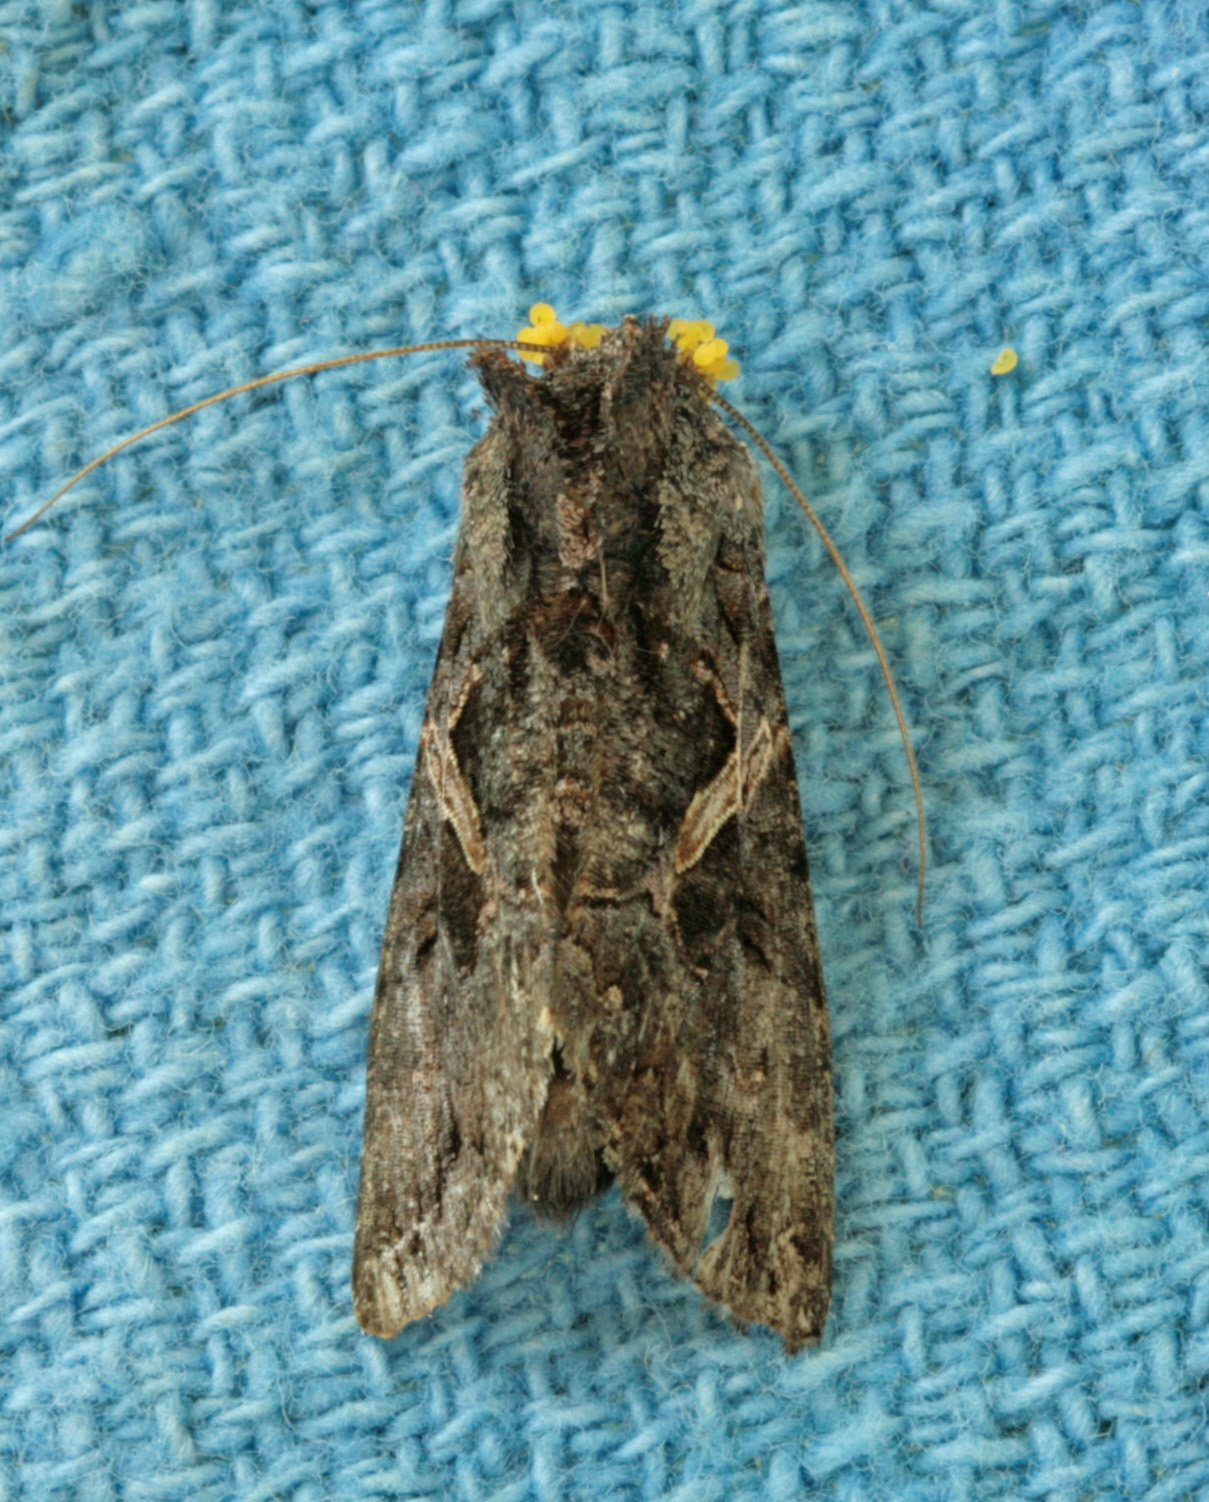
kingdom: Animalia
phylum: Arthropoda
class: Insecta
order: Lepidoptera
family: Noctuidae
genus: Ctenoplusia
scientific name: Ctenoplusia oxygramma
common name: Sharp-stigma looper moth
